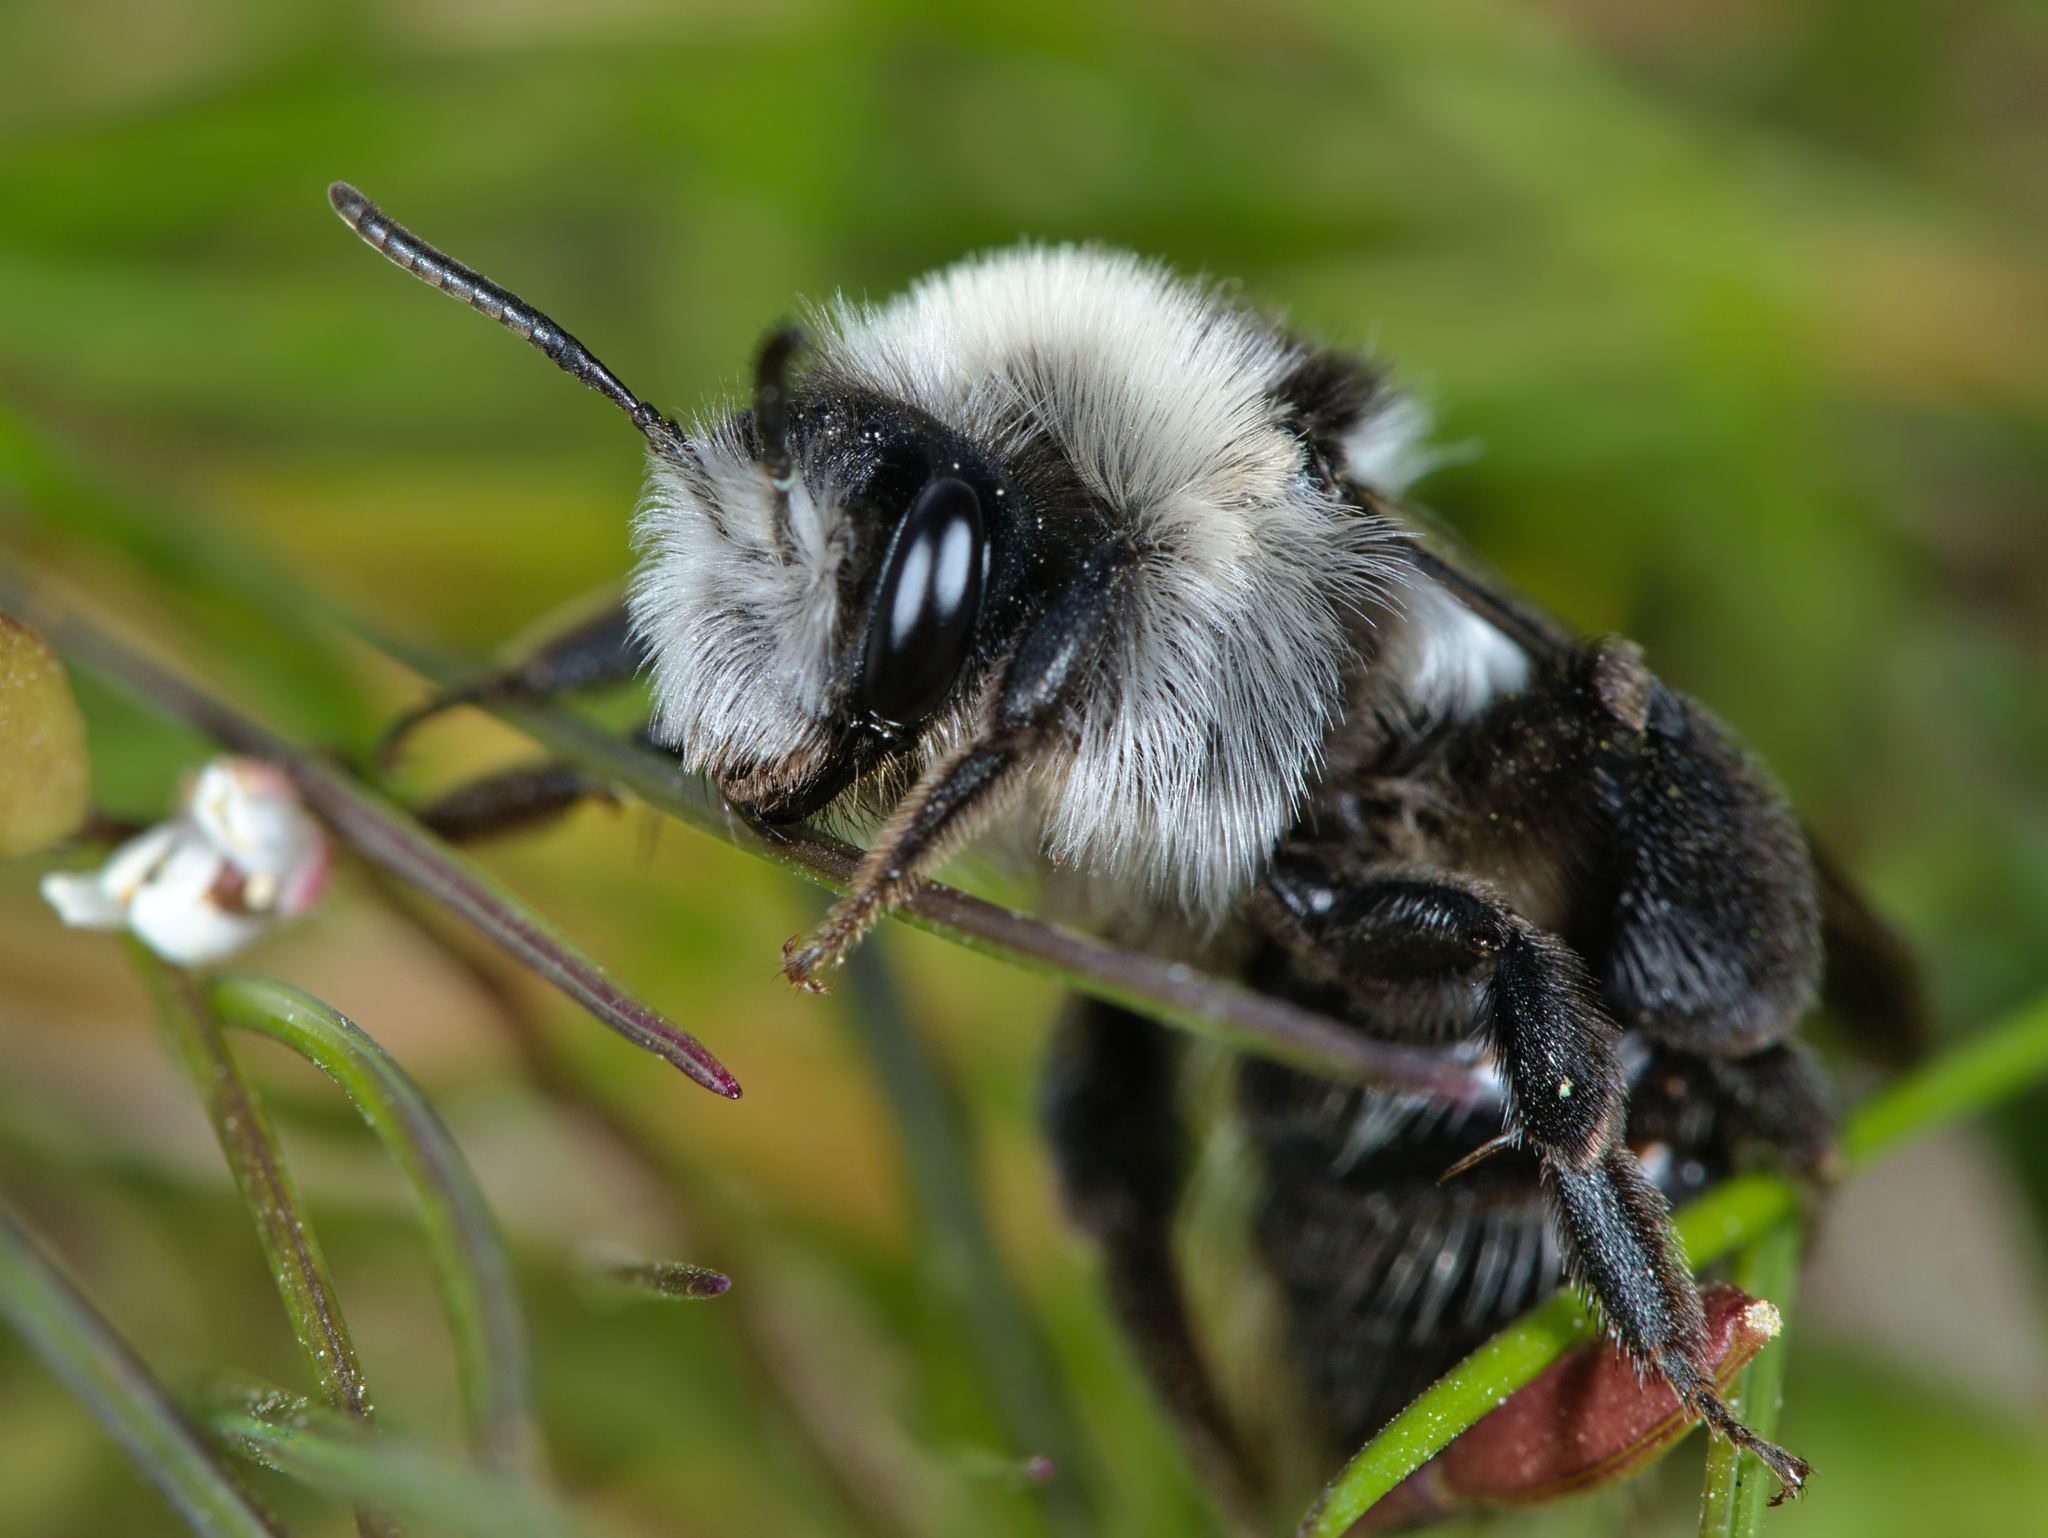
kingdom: Animalia
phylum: Arthropoda
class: Insecta
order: Hymenoptera
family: Andrenidae
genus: Andrena
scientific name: Andrena cineraria
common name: Ashy mining bee
